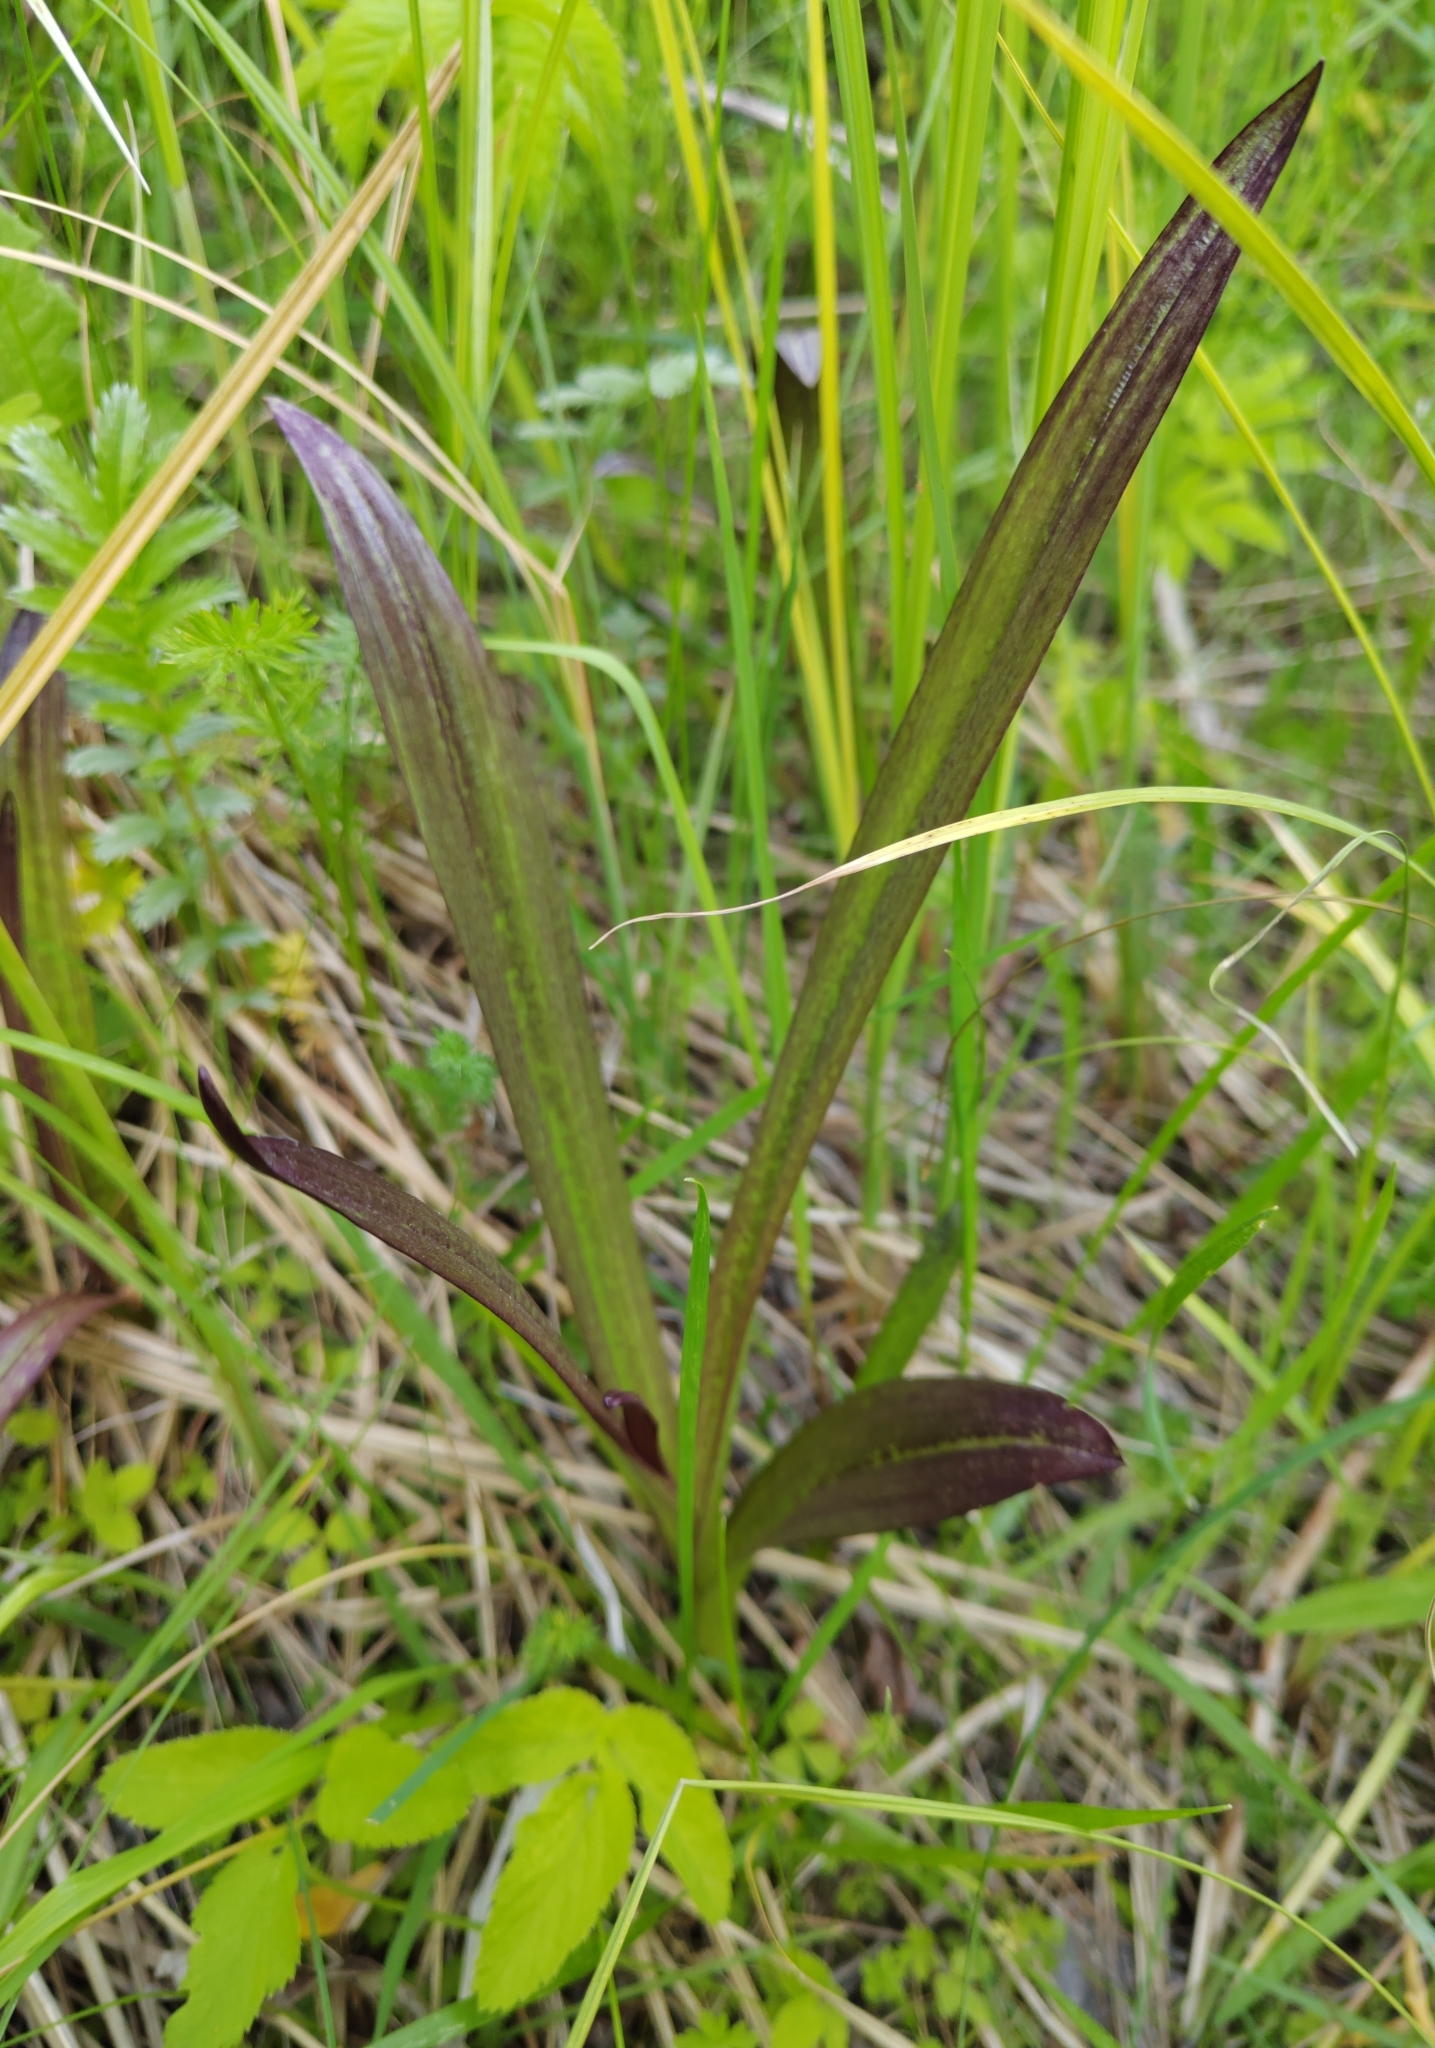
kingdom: Plantae
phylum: Tracheophyta
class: Liliopsida
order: Asparagales
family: Orchidaceae
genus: Dactylorhiza
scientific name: Dactylorhiza incarnata
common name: Early marsh-orchid
